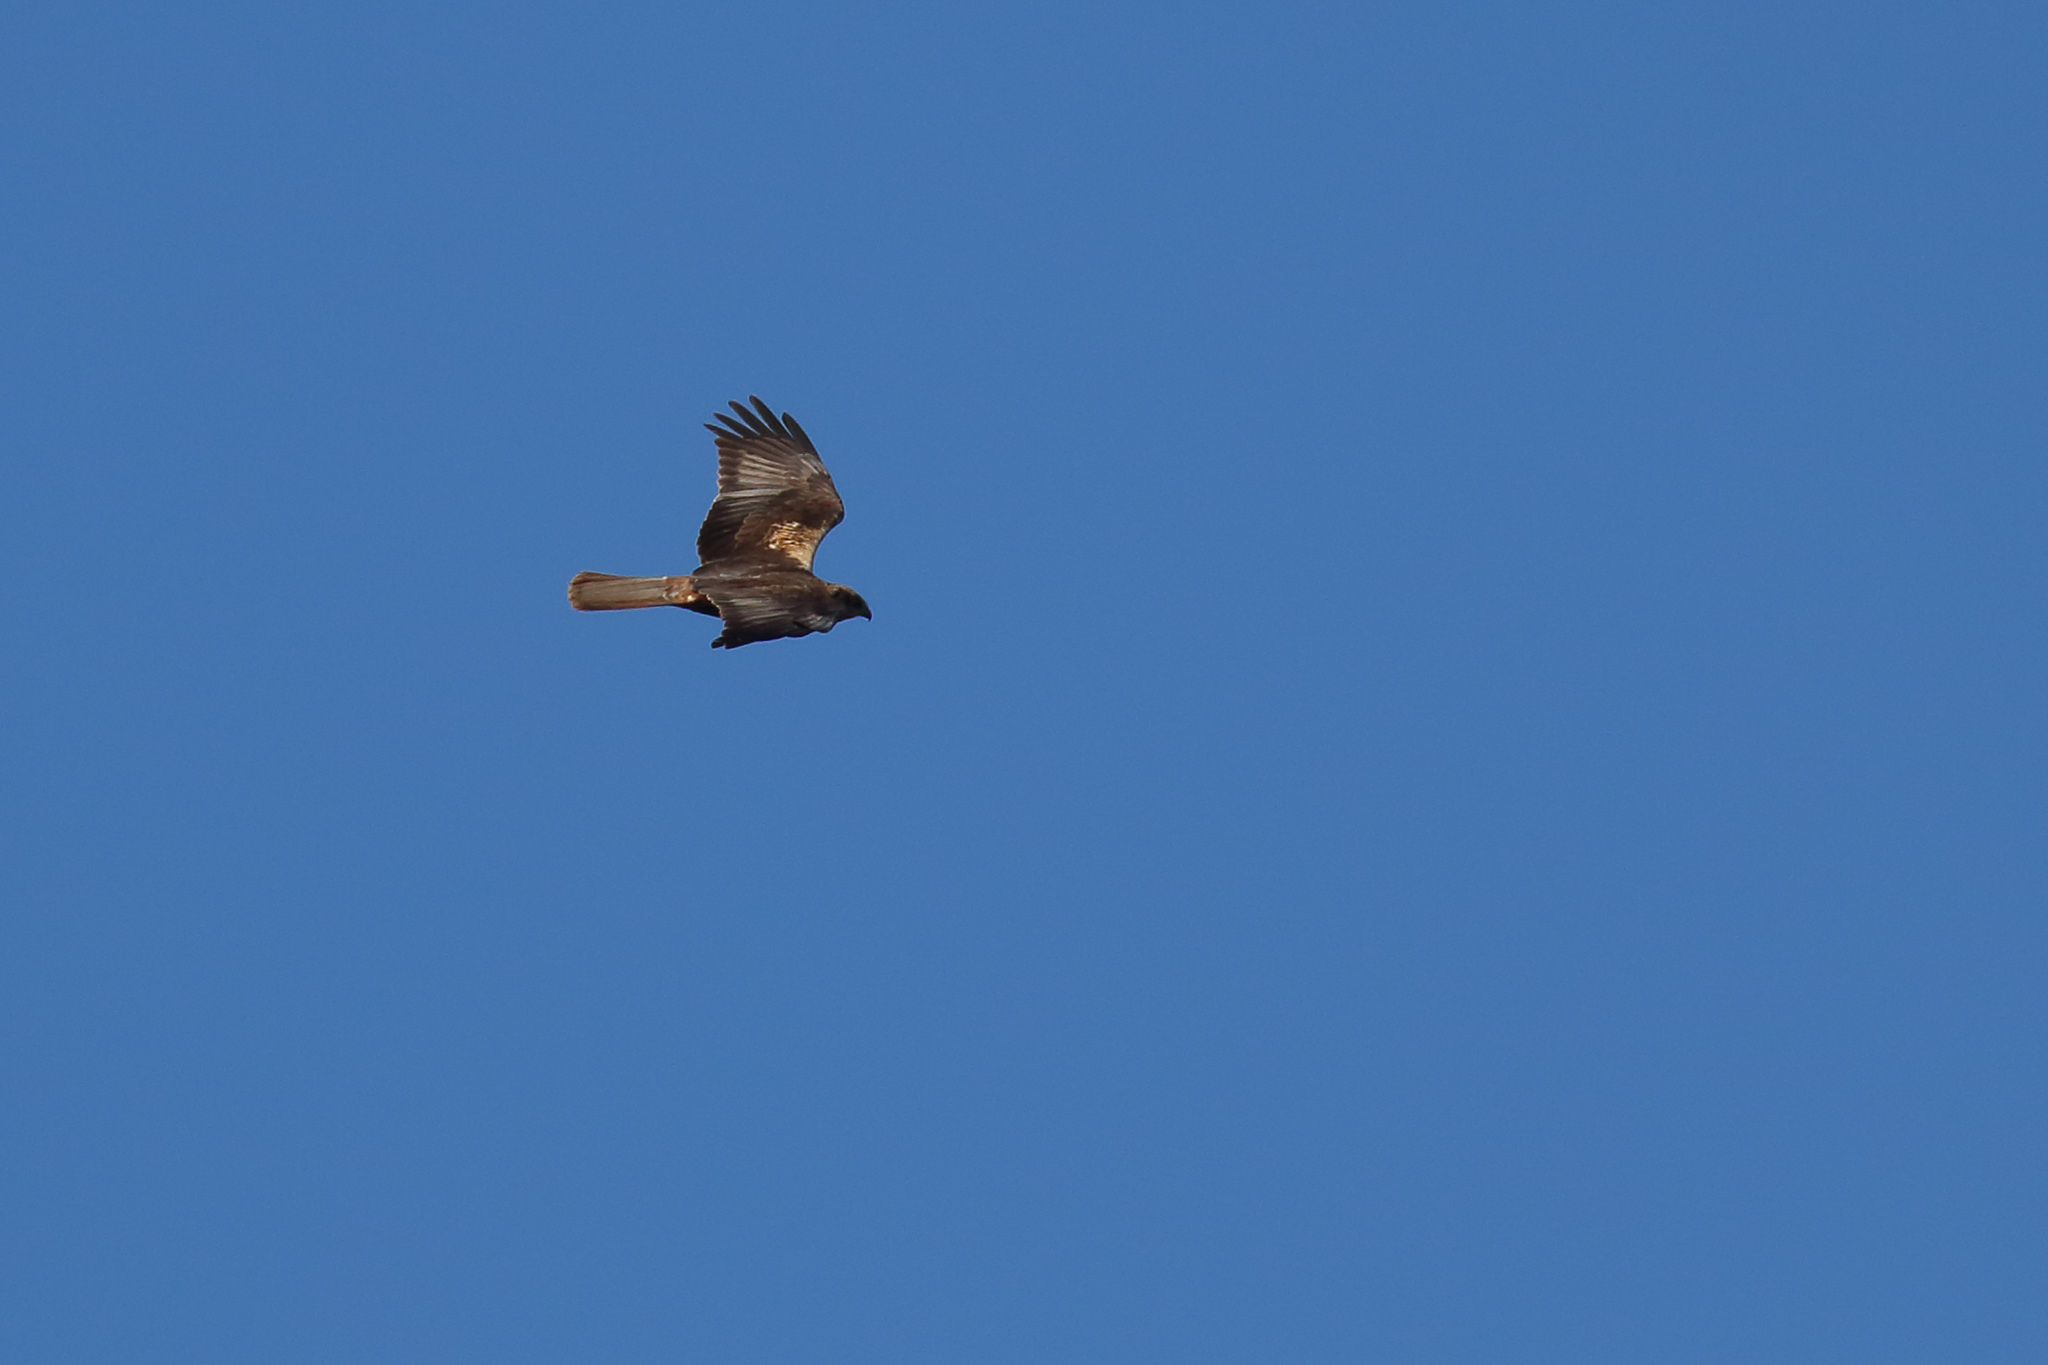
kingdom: Animalia
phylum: Chordata
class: Aves
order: Accipitriformes
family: Accipitridae
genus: Circus
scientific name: Circus aeruginosus
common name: Western marsh harrier
